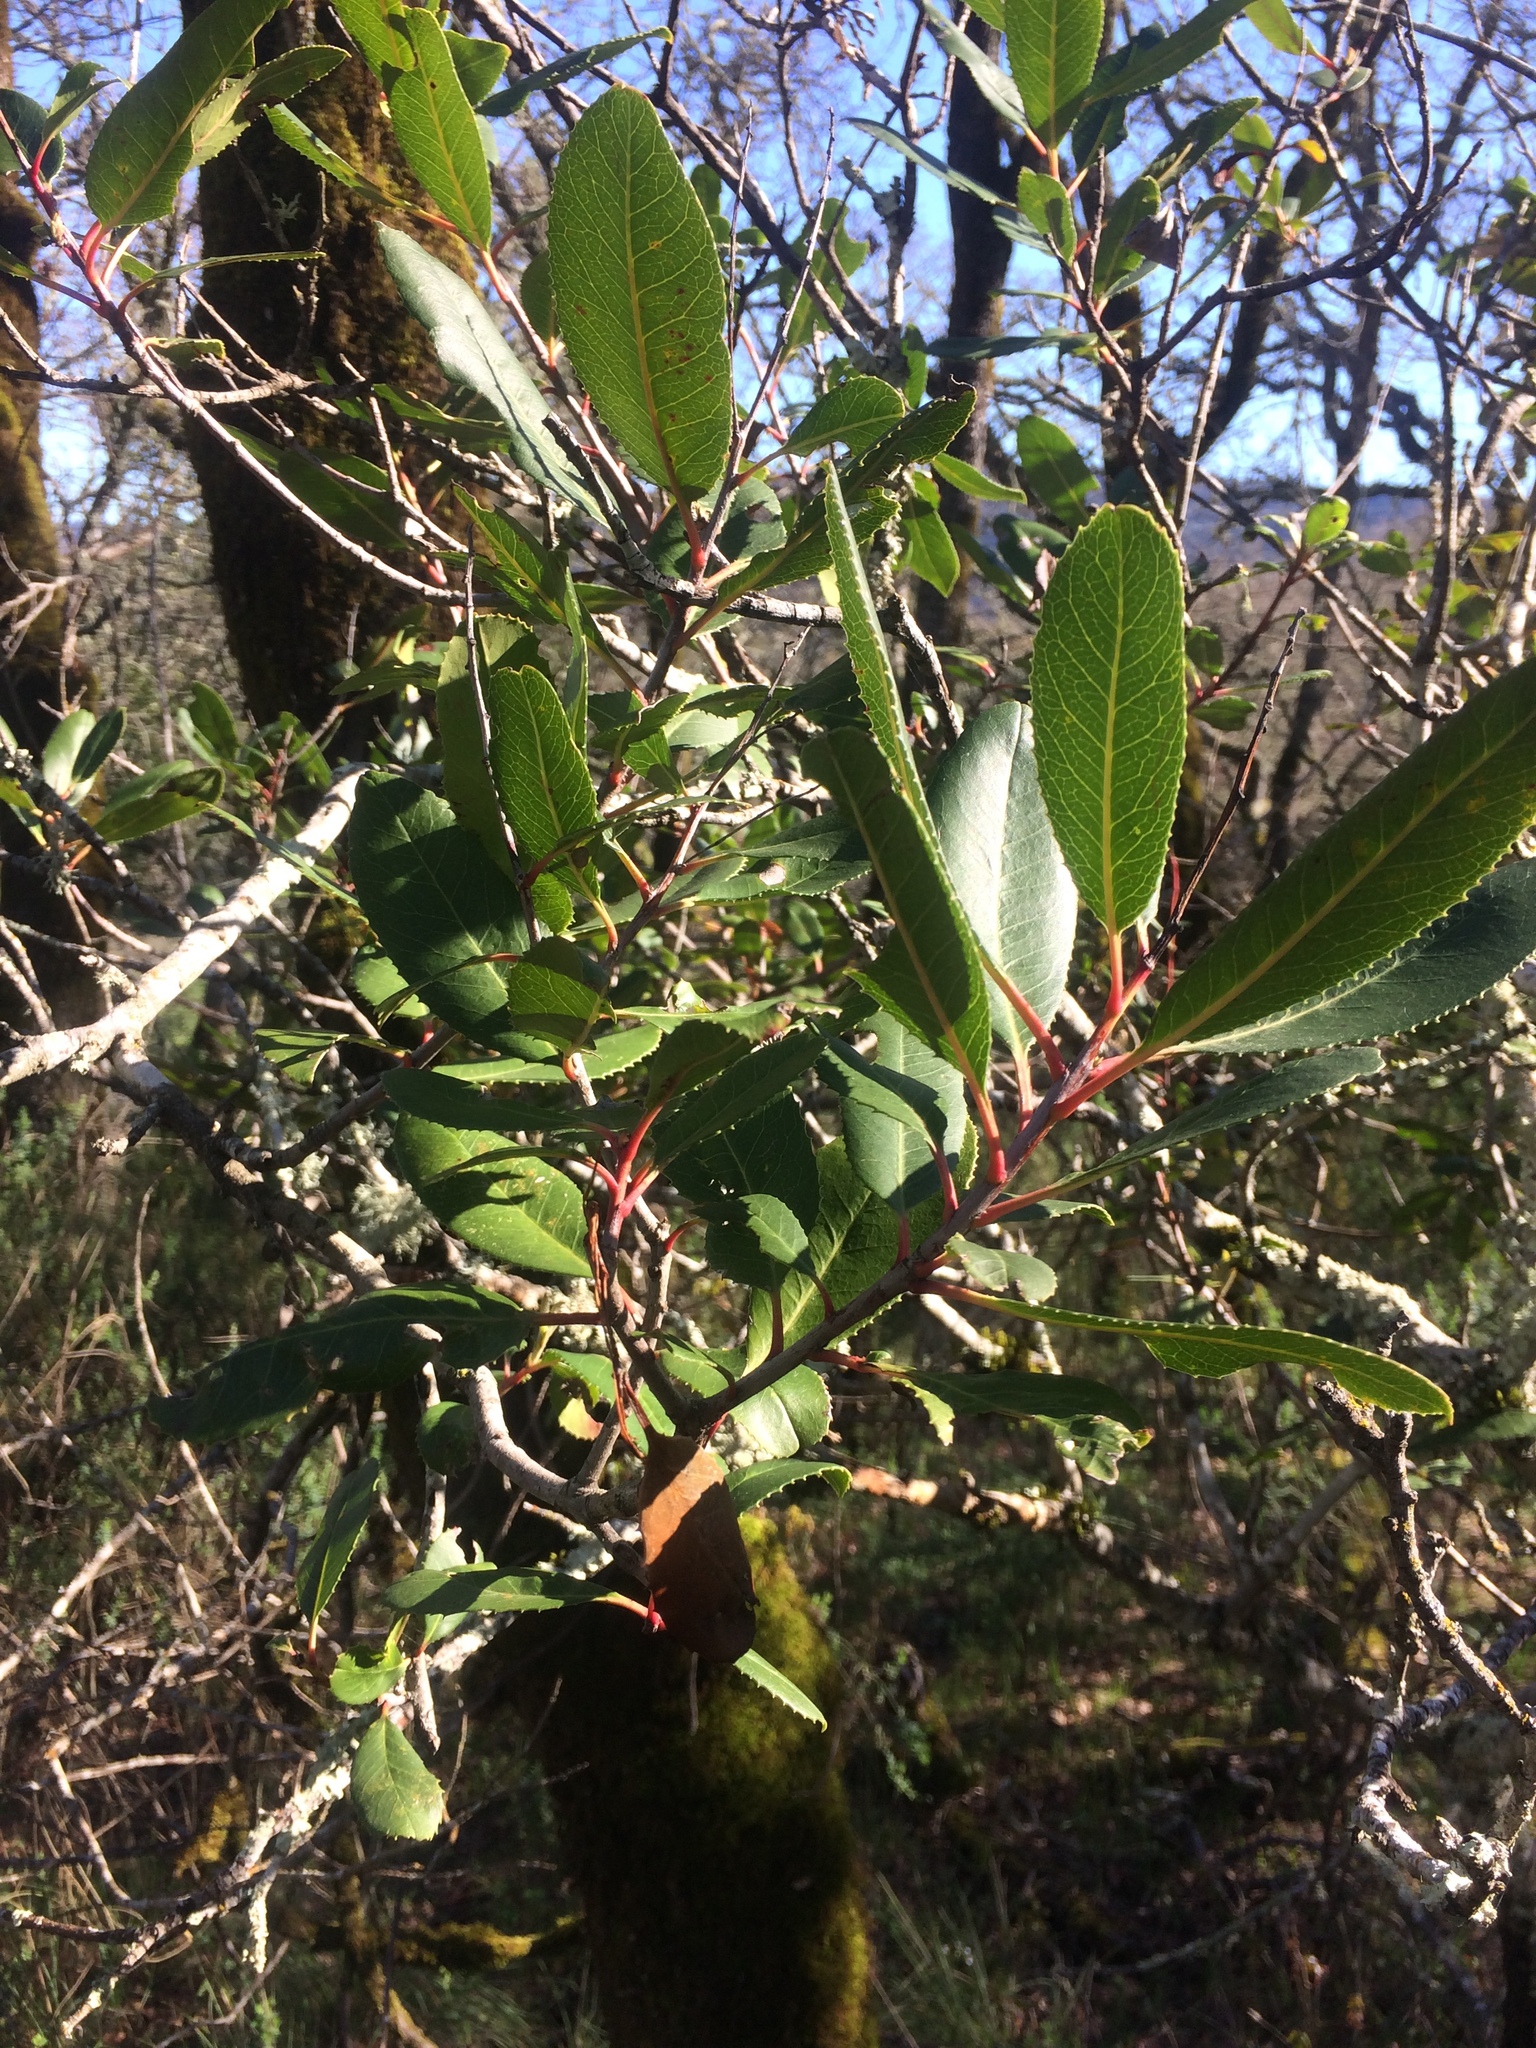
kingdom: Plantae
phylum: Tracheophyta
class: Magnoliopsida
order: Rosales
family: Rosaceae
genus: Heteromeles
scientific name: Heteromeles arbutifolia
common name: California-holly
